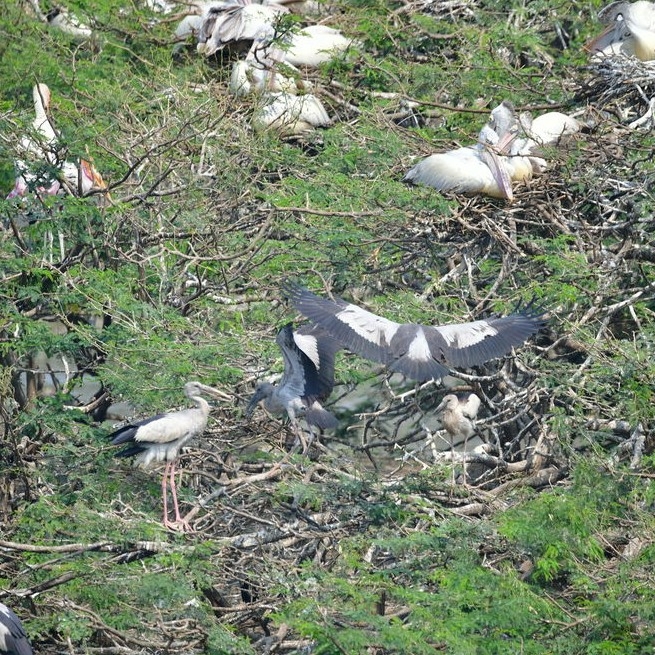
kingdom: Animalia
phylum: Chordata
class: Aves
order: Ciconiiformes
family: Ciconiidae
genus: Anastomus
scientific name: Anastomus oscitans
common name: Asian openbill
